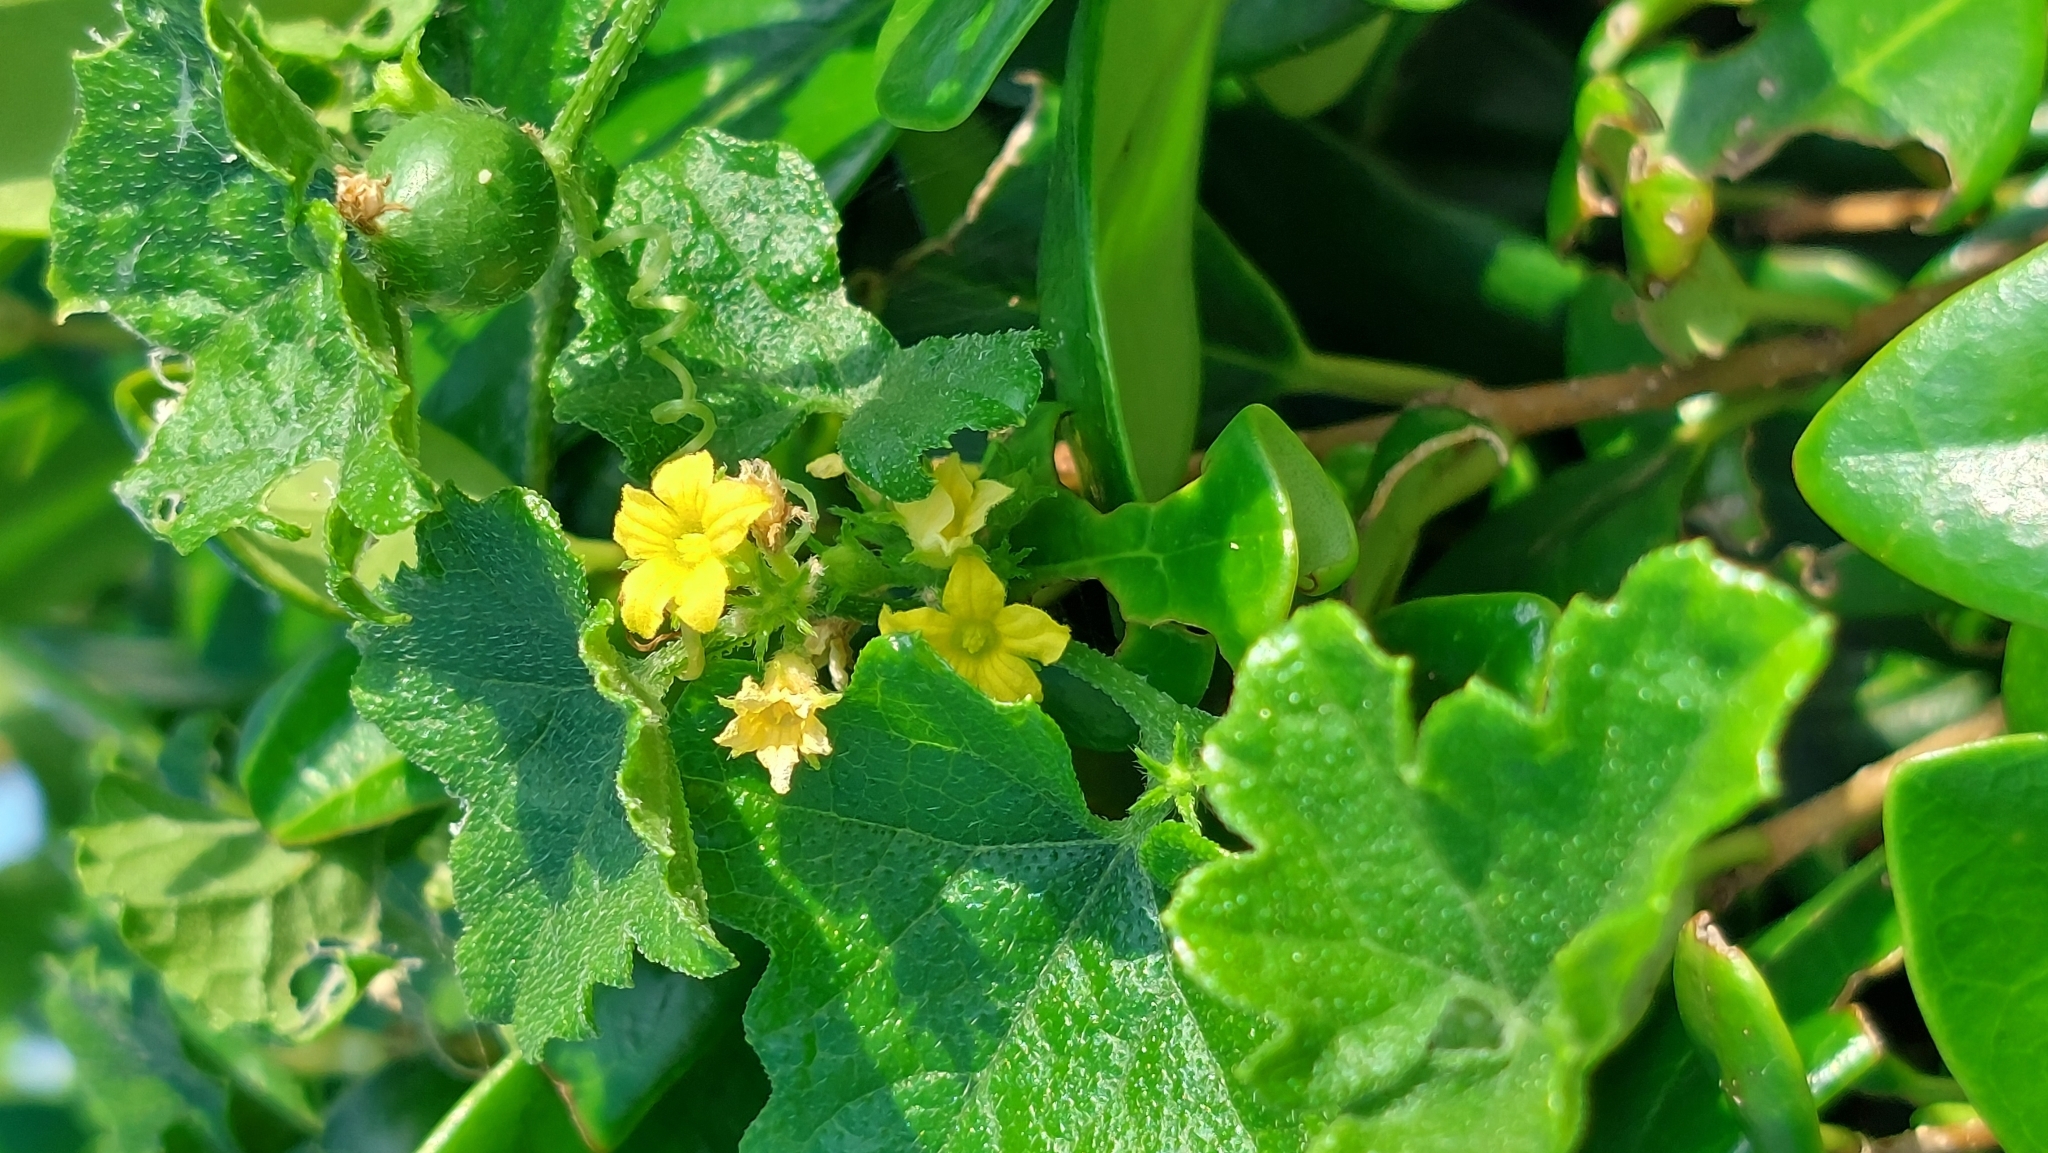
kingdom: Plantae
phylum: Tracheophyta
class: Magnoliopsida
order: Cucurbitales
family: Cucurbitaceae
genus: Cucumis
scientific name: Cucumis maderaspatanus
